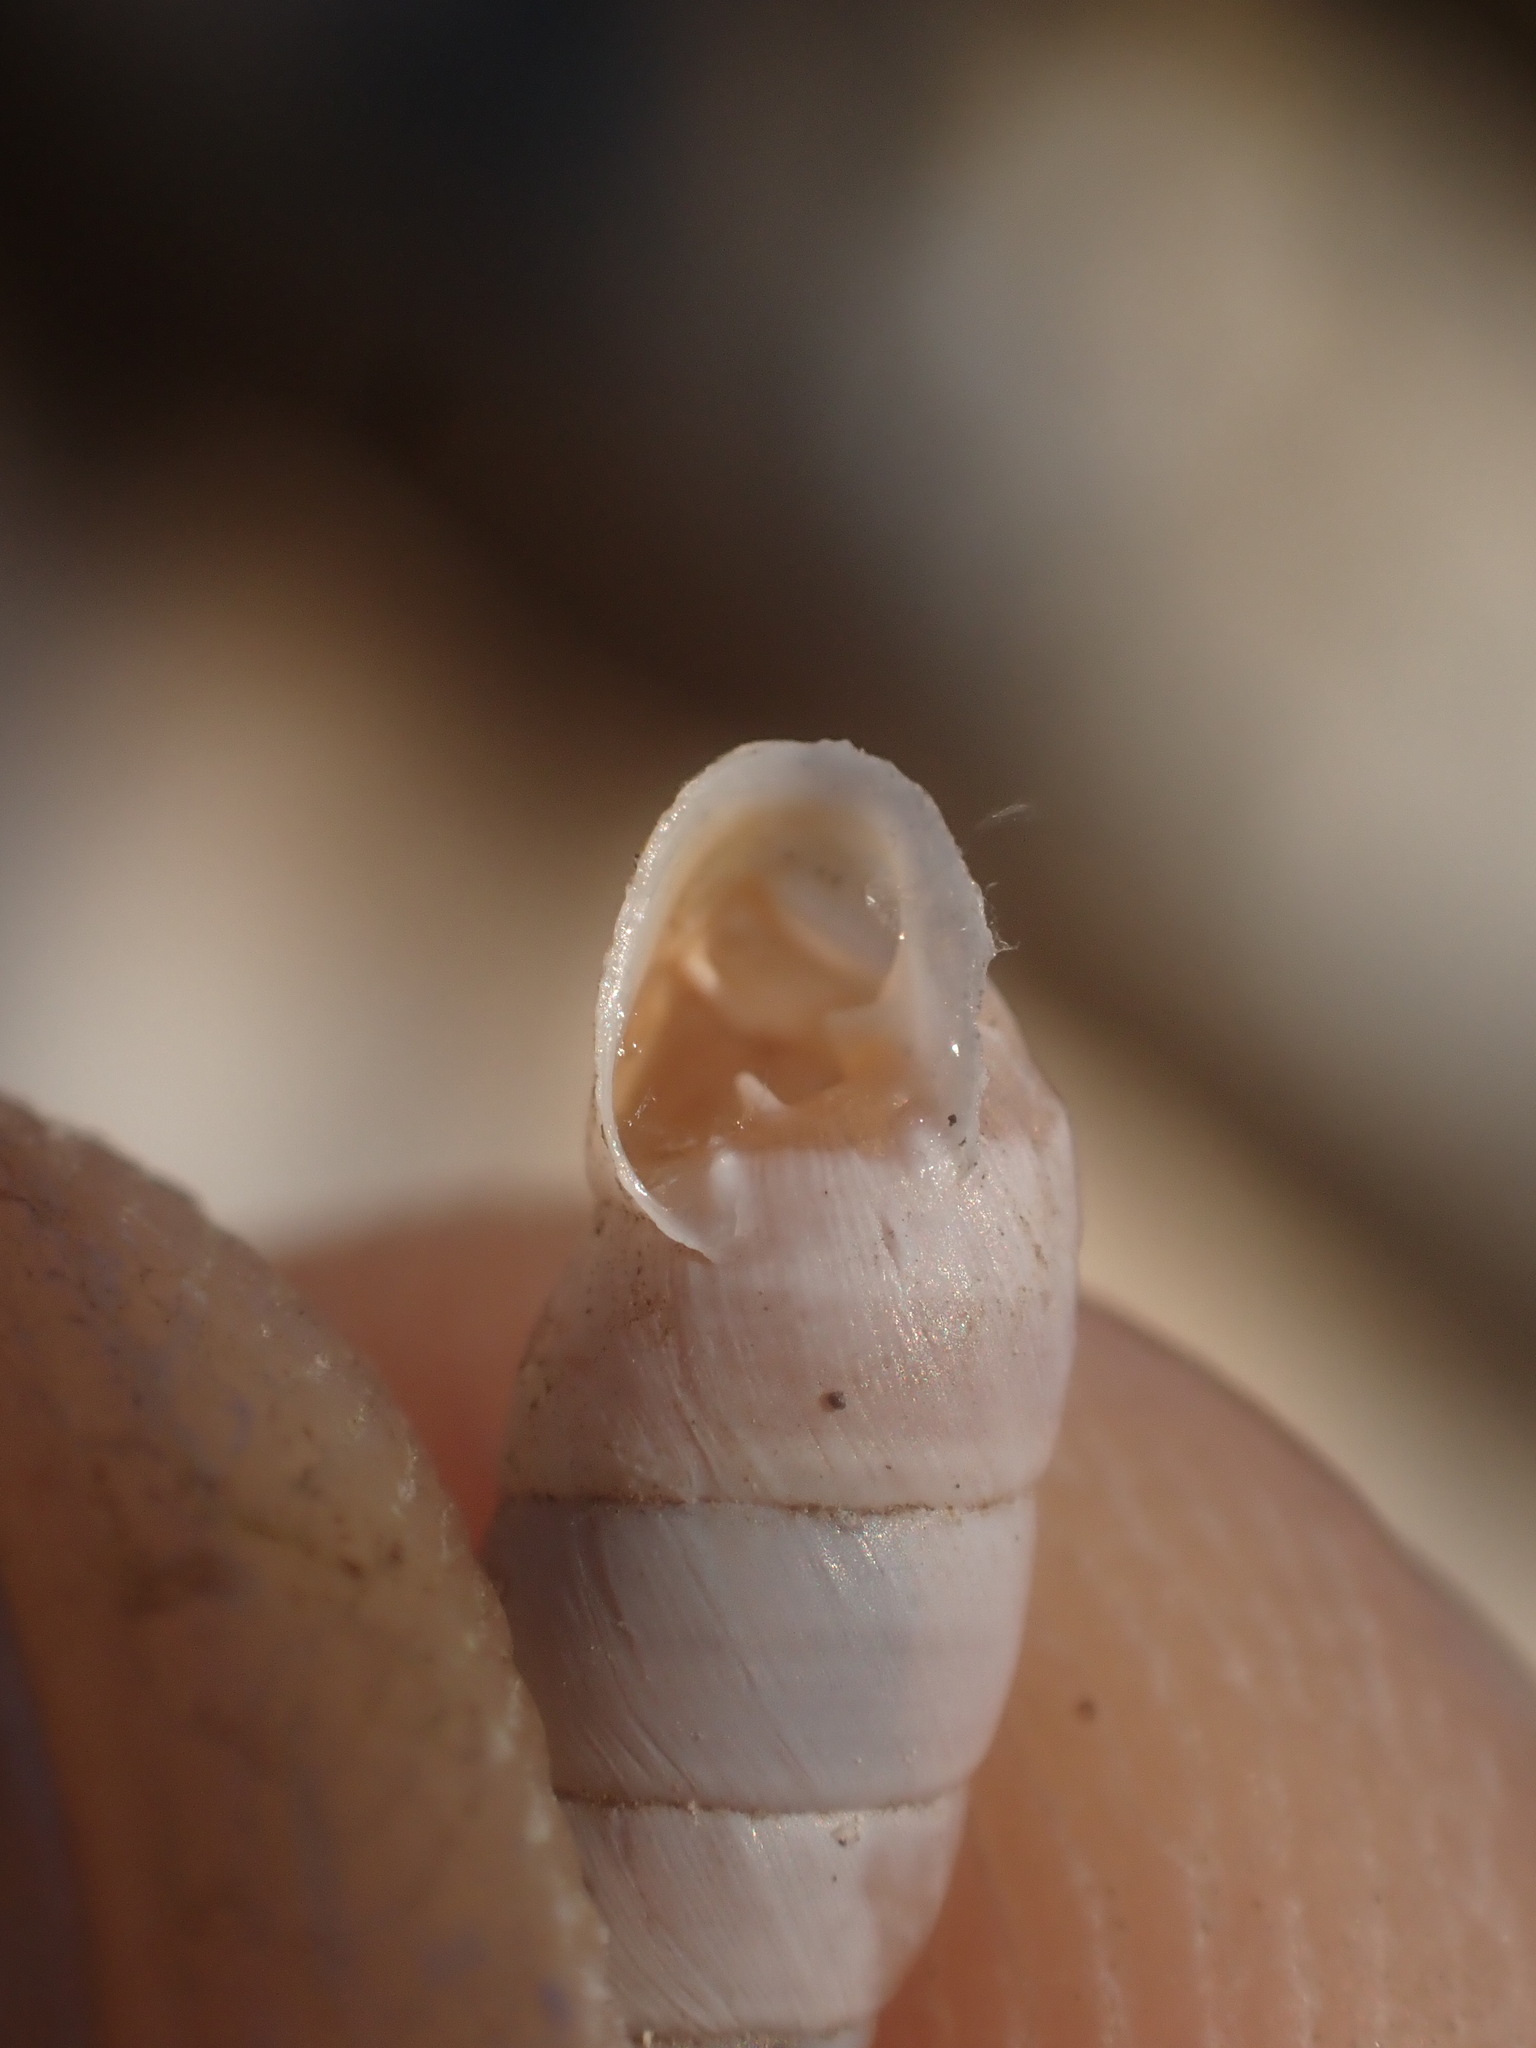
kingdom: Animalia
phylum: Mollusca
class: Gastropoda
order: Stylommatophora
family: Chondrinidae
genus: Solatopupa
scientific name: Solatopupa similis
